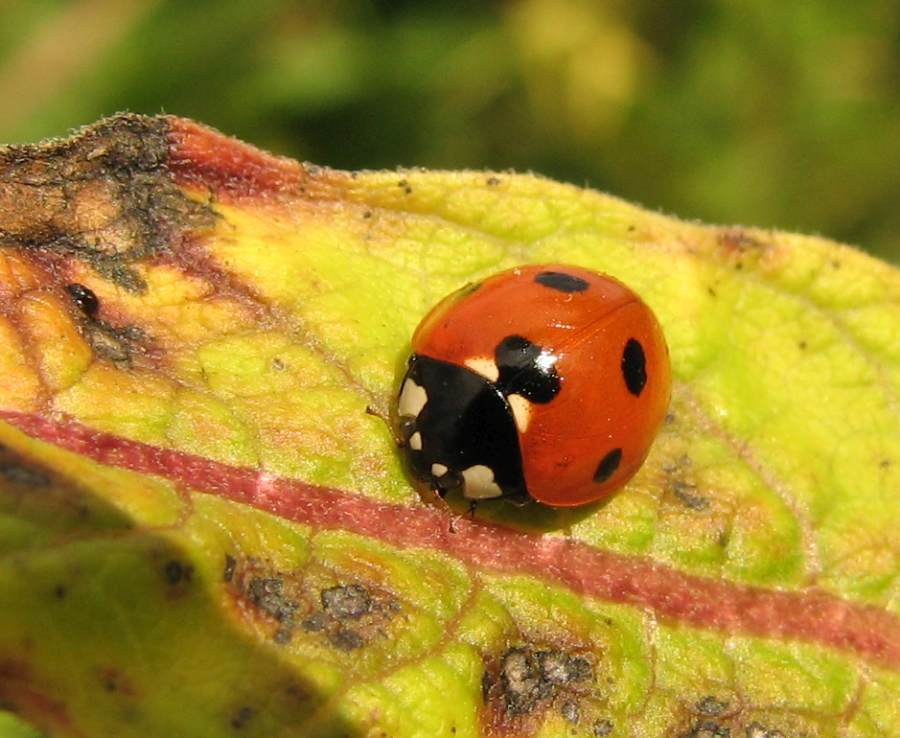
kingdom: Animalia
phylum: Arthropoda
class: Insecta
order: Coleoptera
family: Coccinellidae
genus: Coccinella
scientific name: Coccinella septempunctata
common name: Sevenspotted lady beetle
